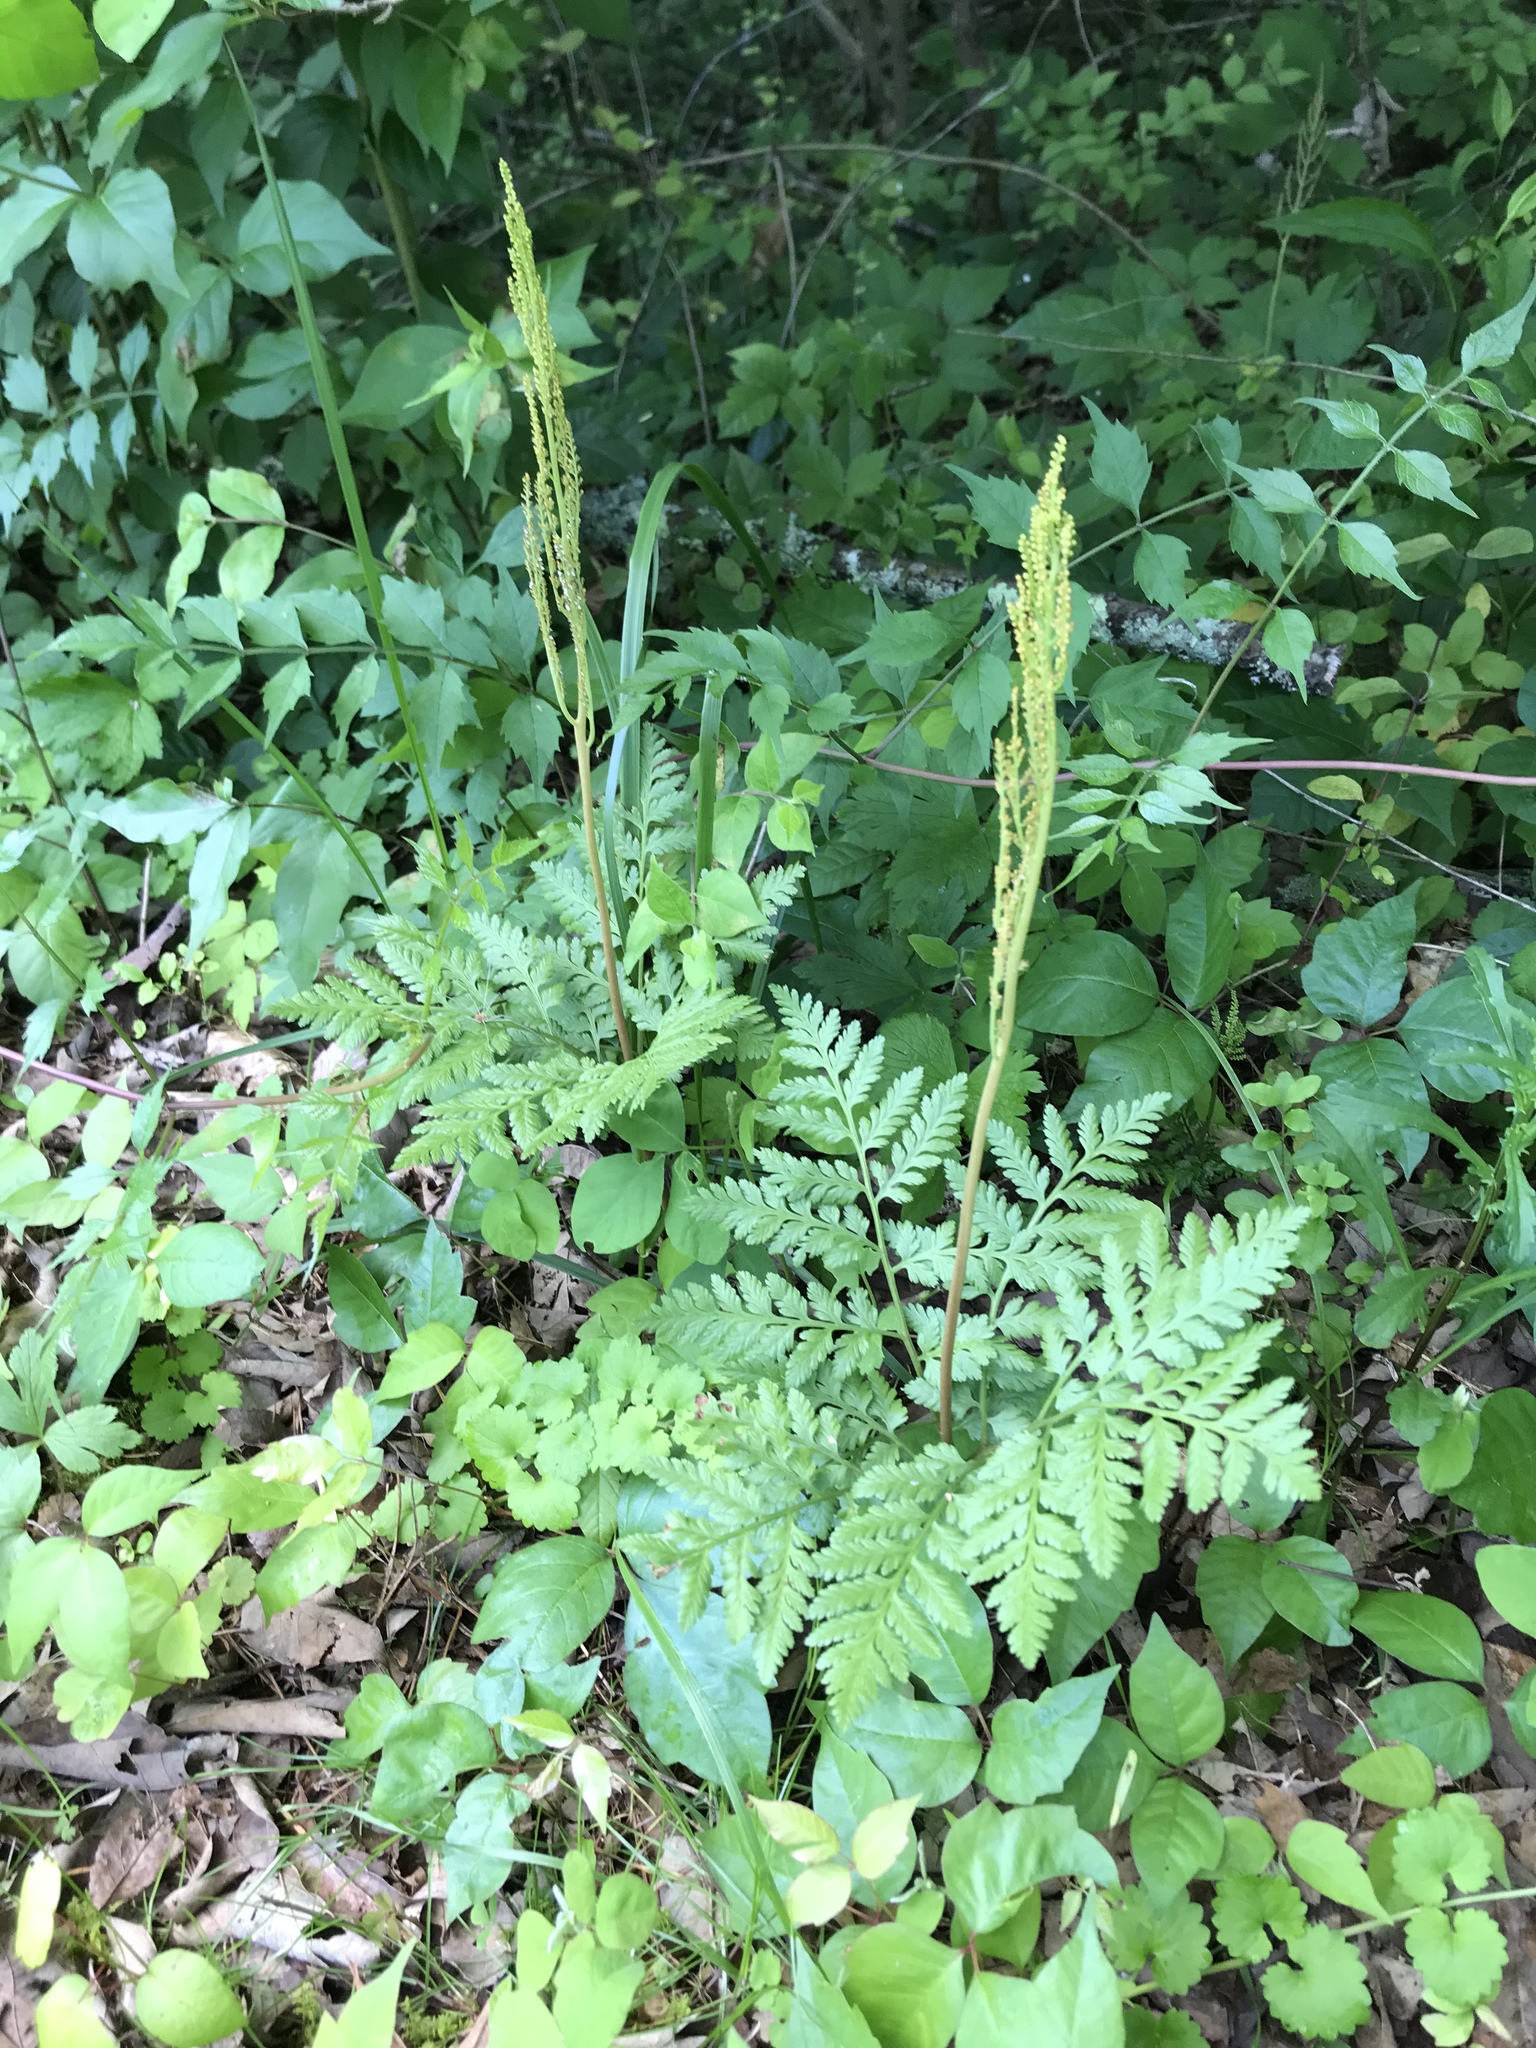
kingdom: Plantae
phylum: Tracheophyta
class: Polypodiopsida
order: Ophioglossales
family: Ophioglossaceae
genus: Botrypus
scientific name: Botrypus virginianus
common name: Common grapefern
